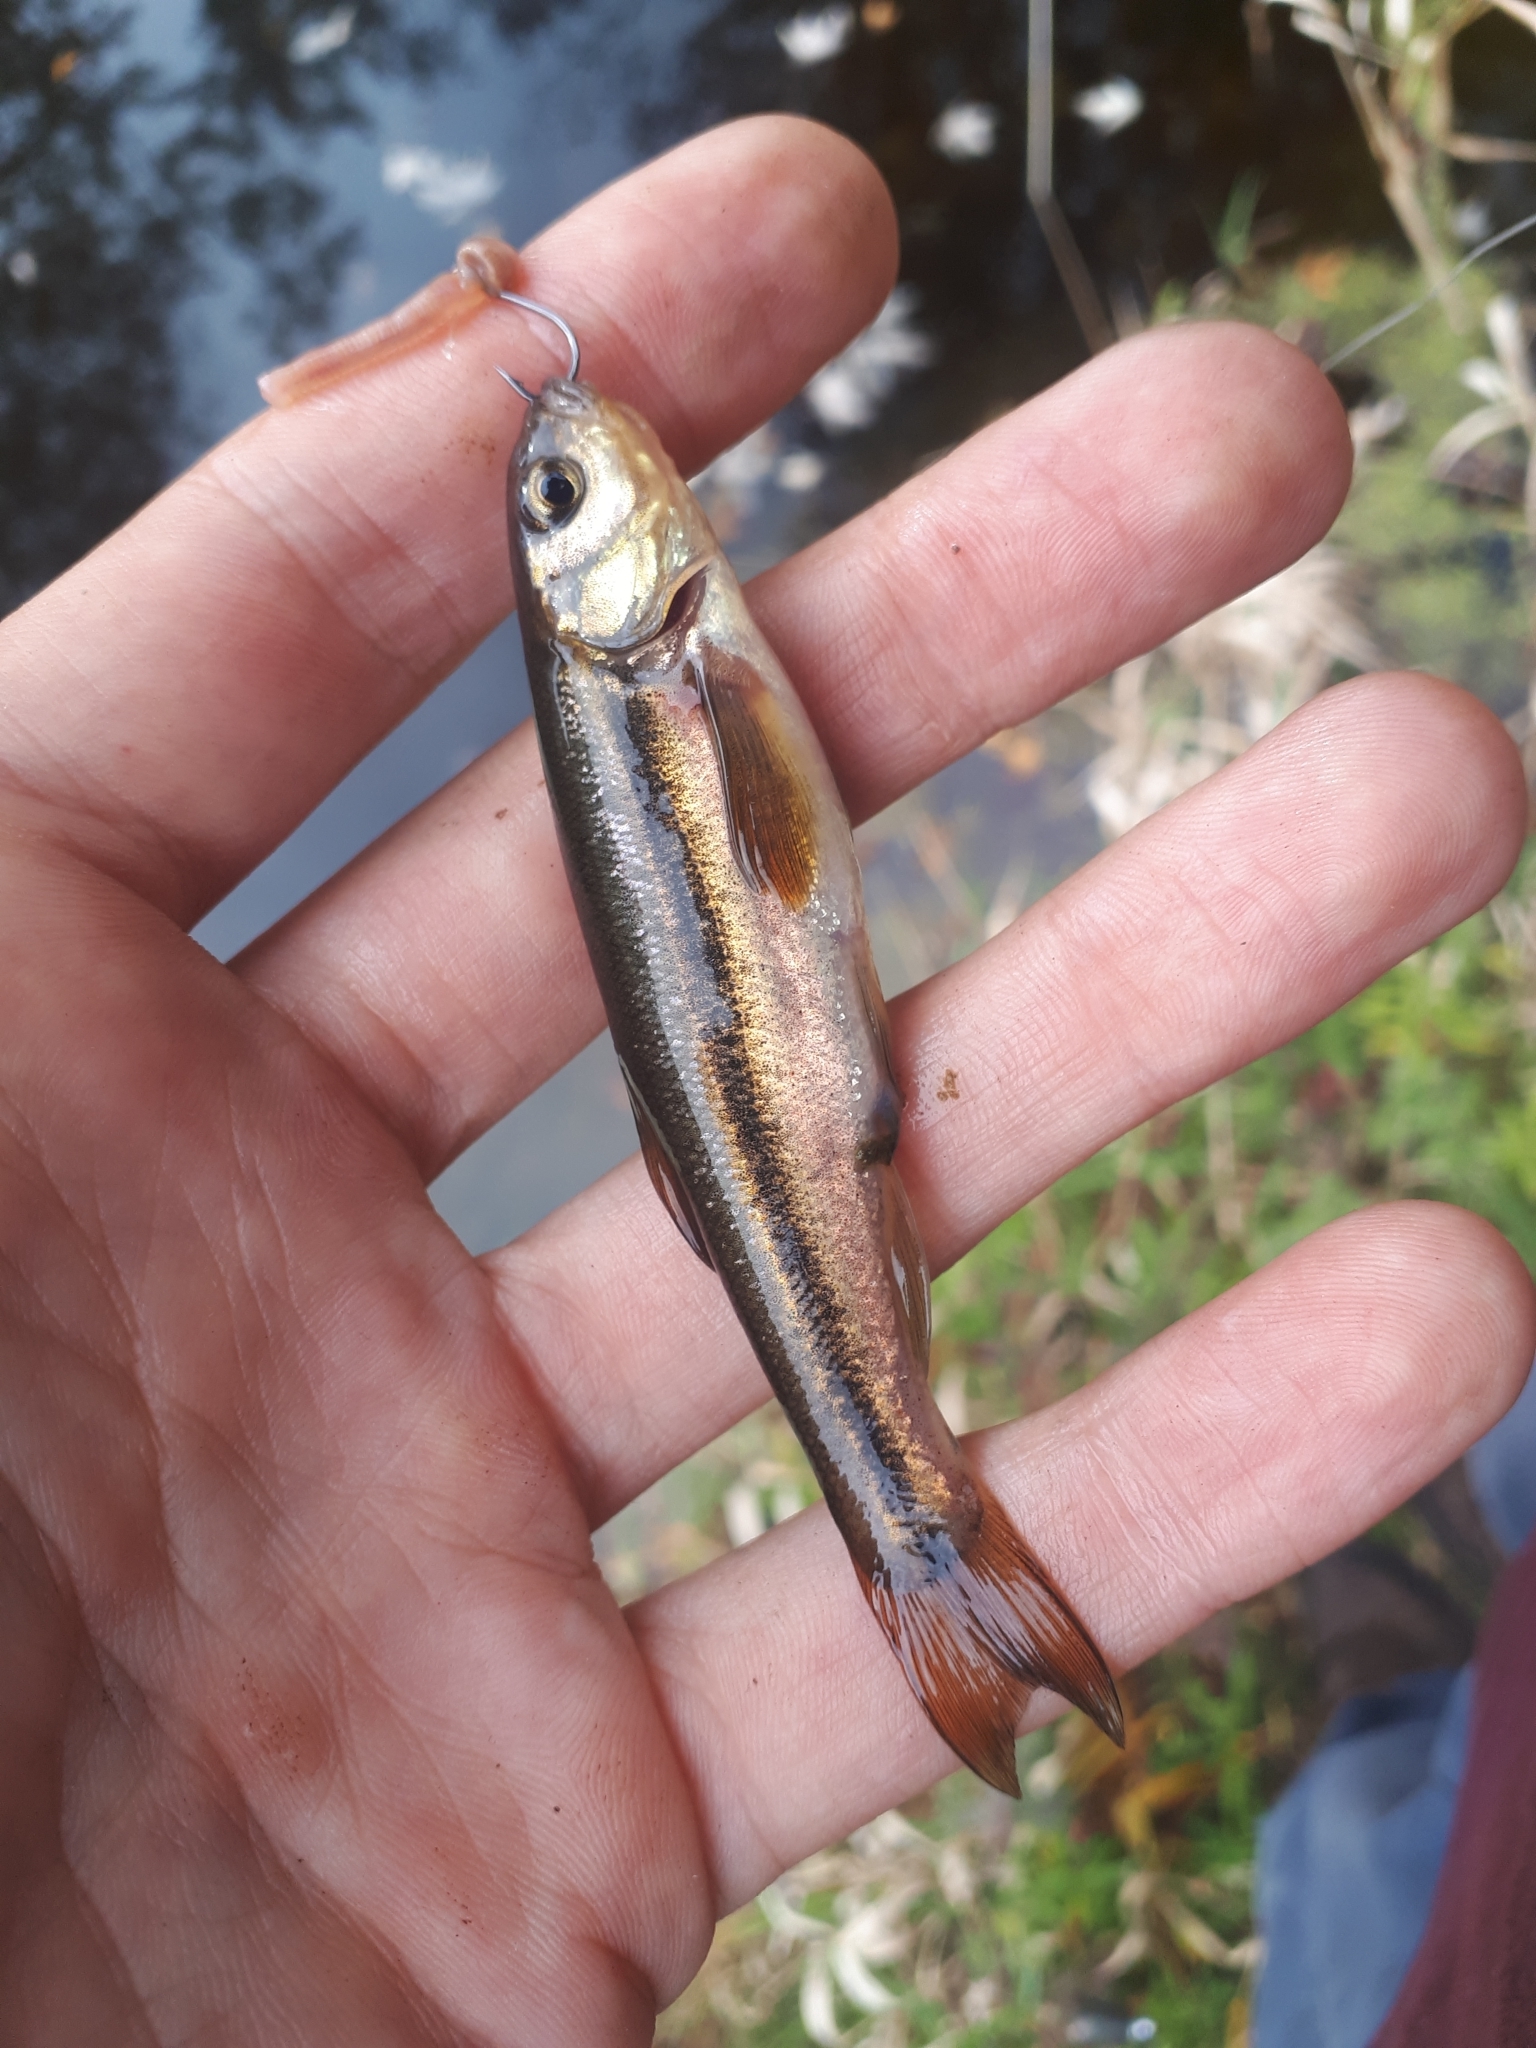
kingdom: Animalia
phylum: Chordata
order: Cypriniformes
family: Cyprinidae
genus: Margariscus
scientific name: Margariscus nachtriebi
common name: Northern pearl dace
